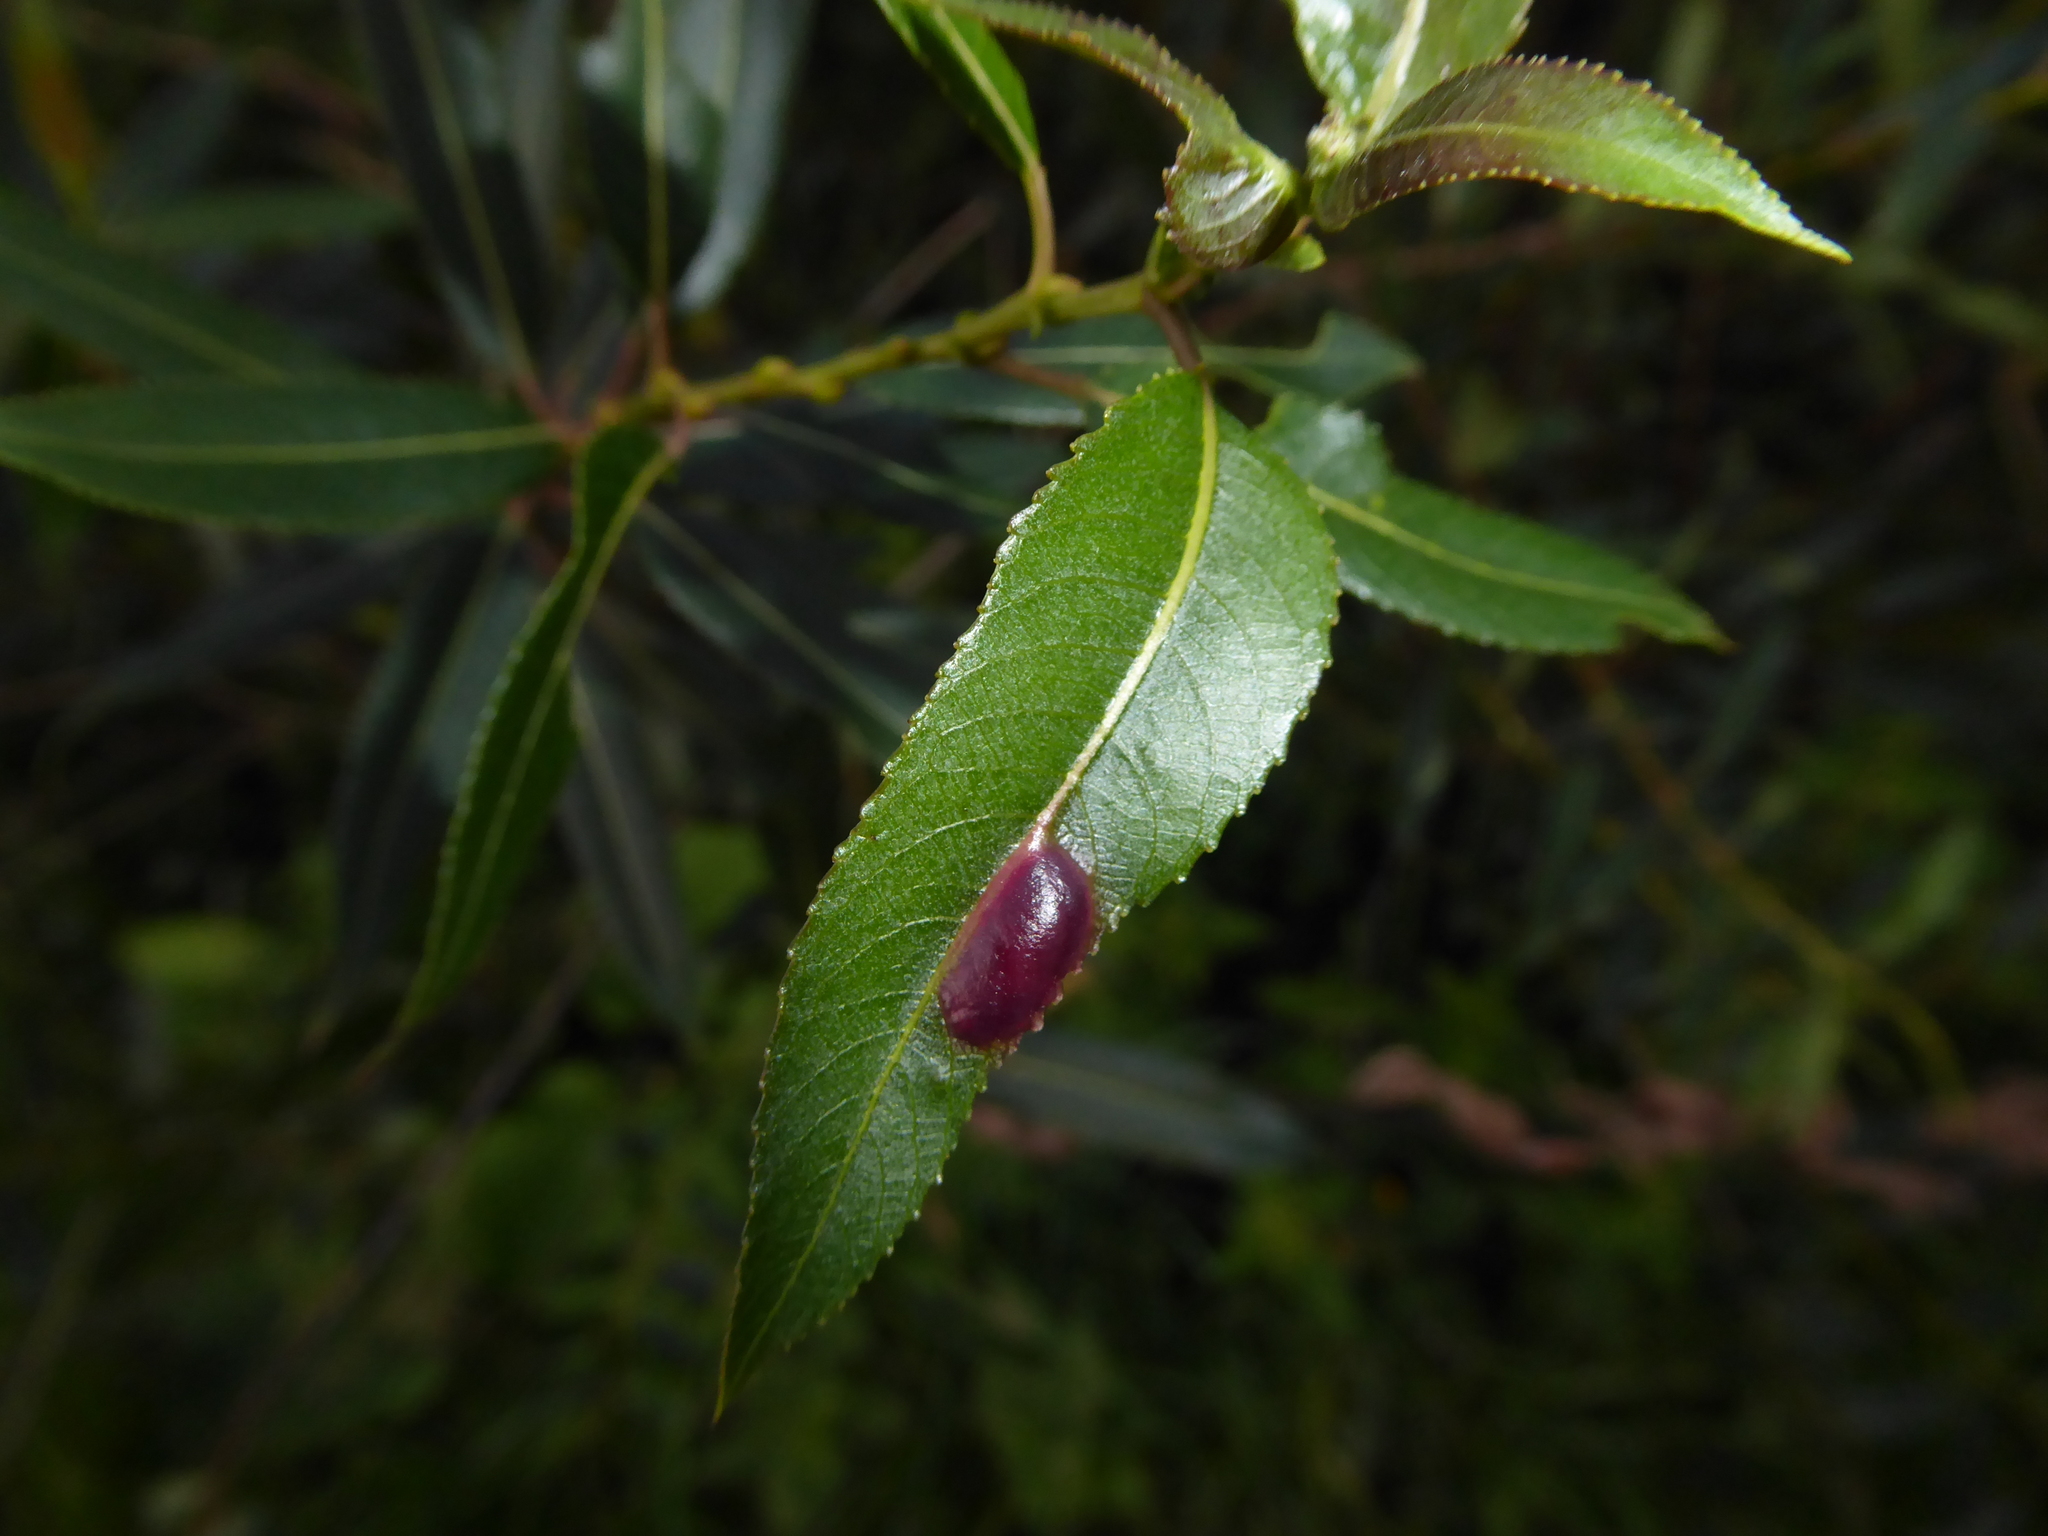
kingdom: Animalia
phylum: Arthropoda
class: Insecta
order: Hymenoptera
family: Tenthredinidae
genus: Pontania
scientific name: Pontania proxima
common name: Common sawfly
